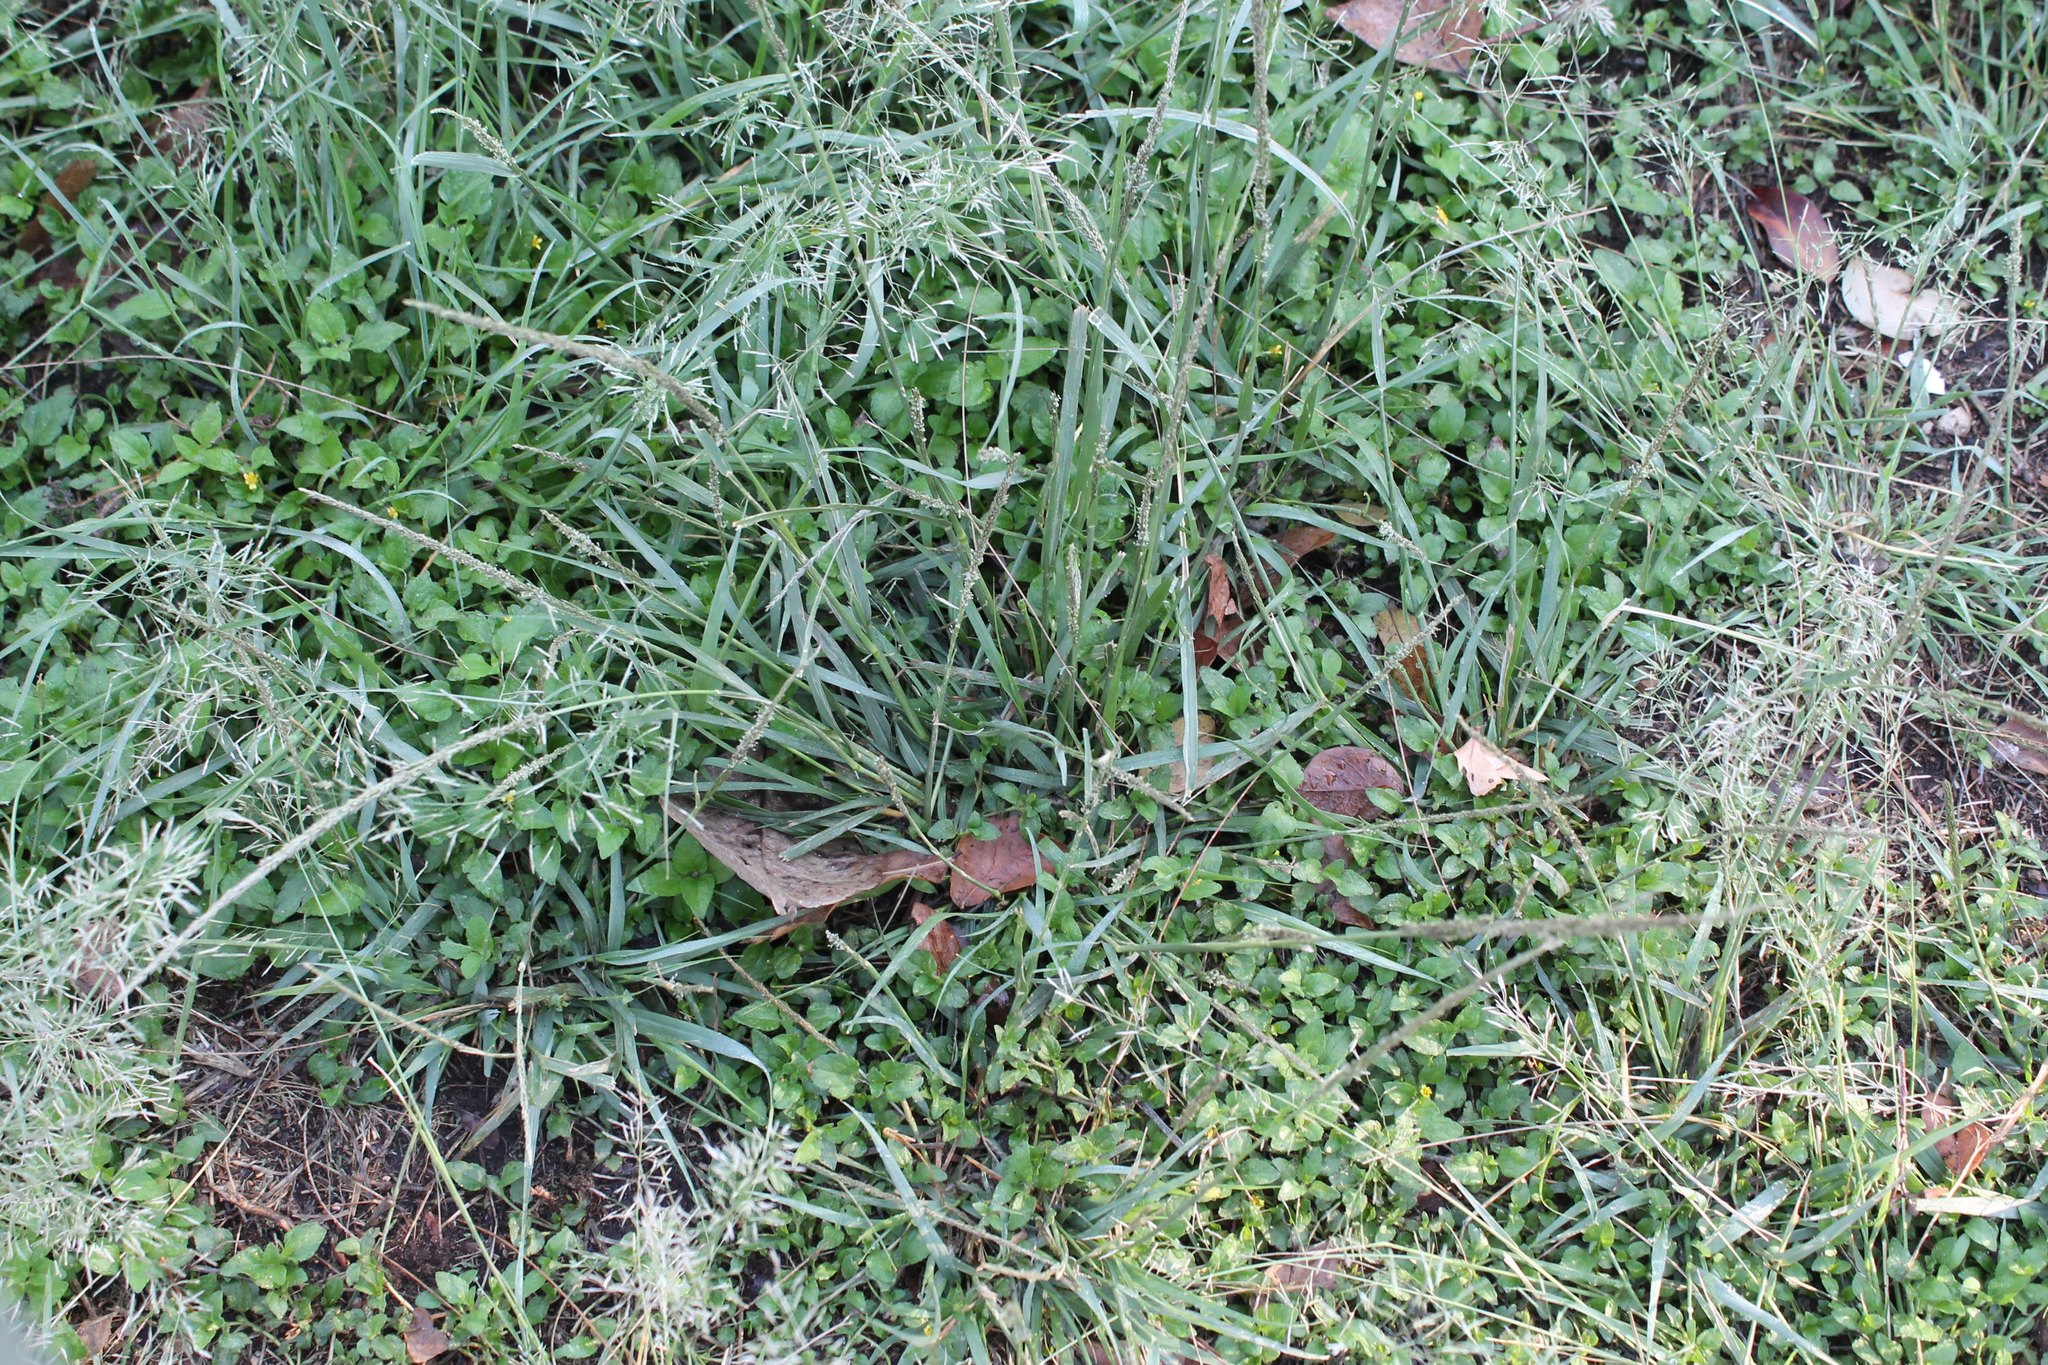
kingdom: Plantae
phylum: Tracheophyta
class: Liliopsida
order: Poales
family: Poaceae
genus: Sporobolus
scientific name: Sporobolus indicus
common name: Smut grass
